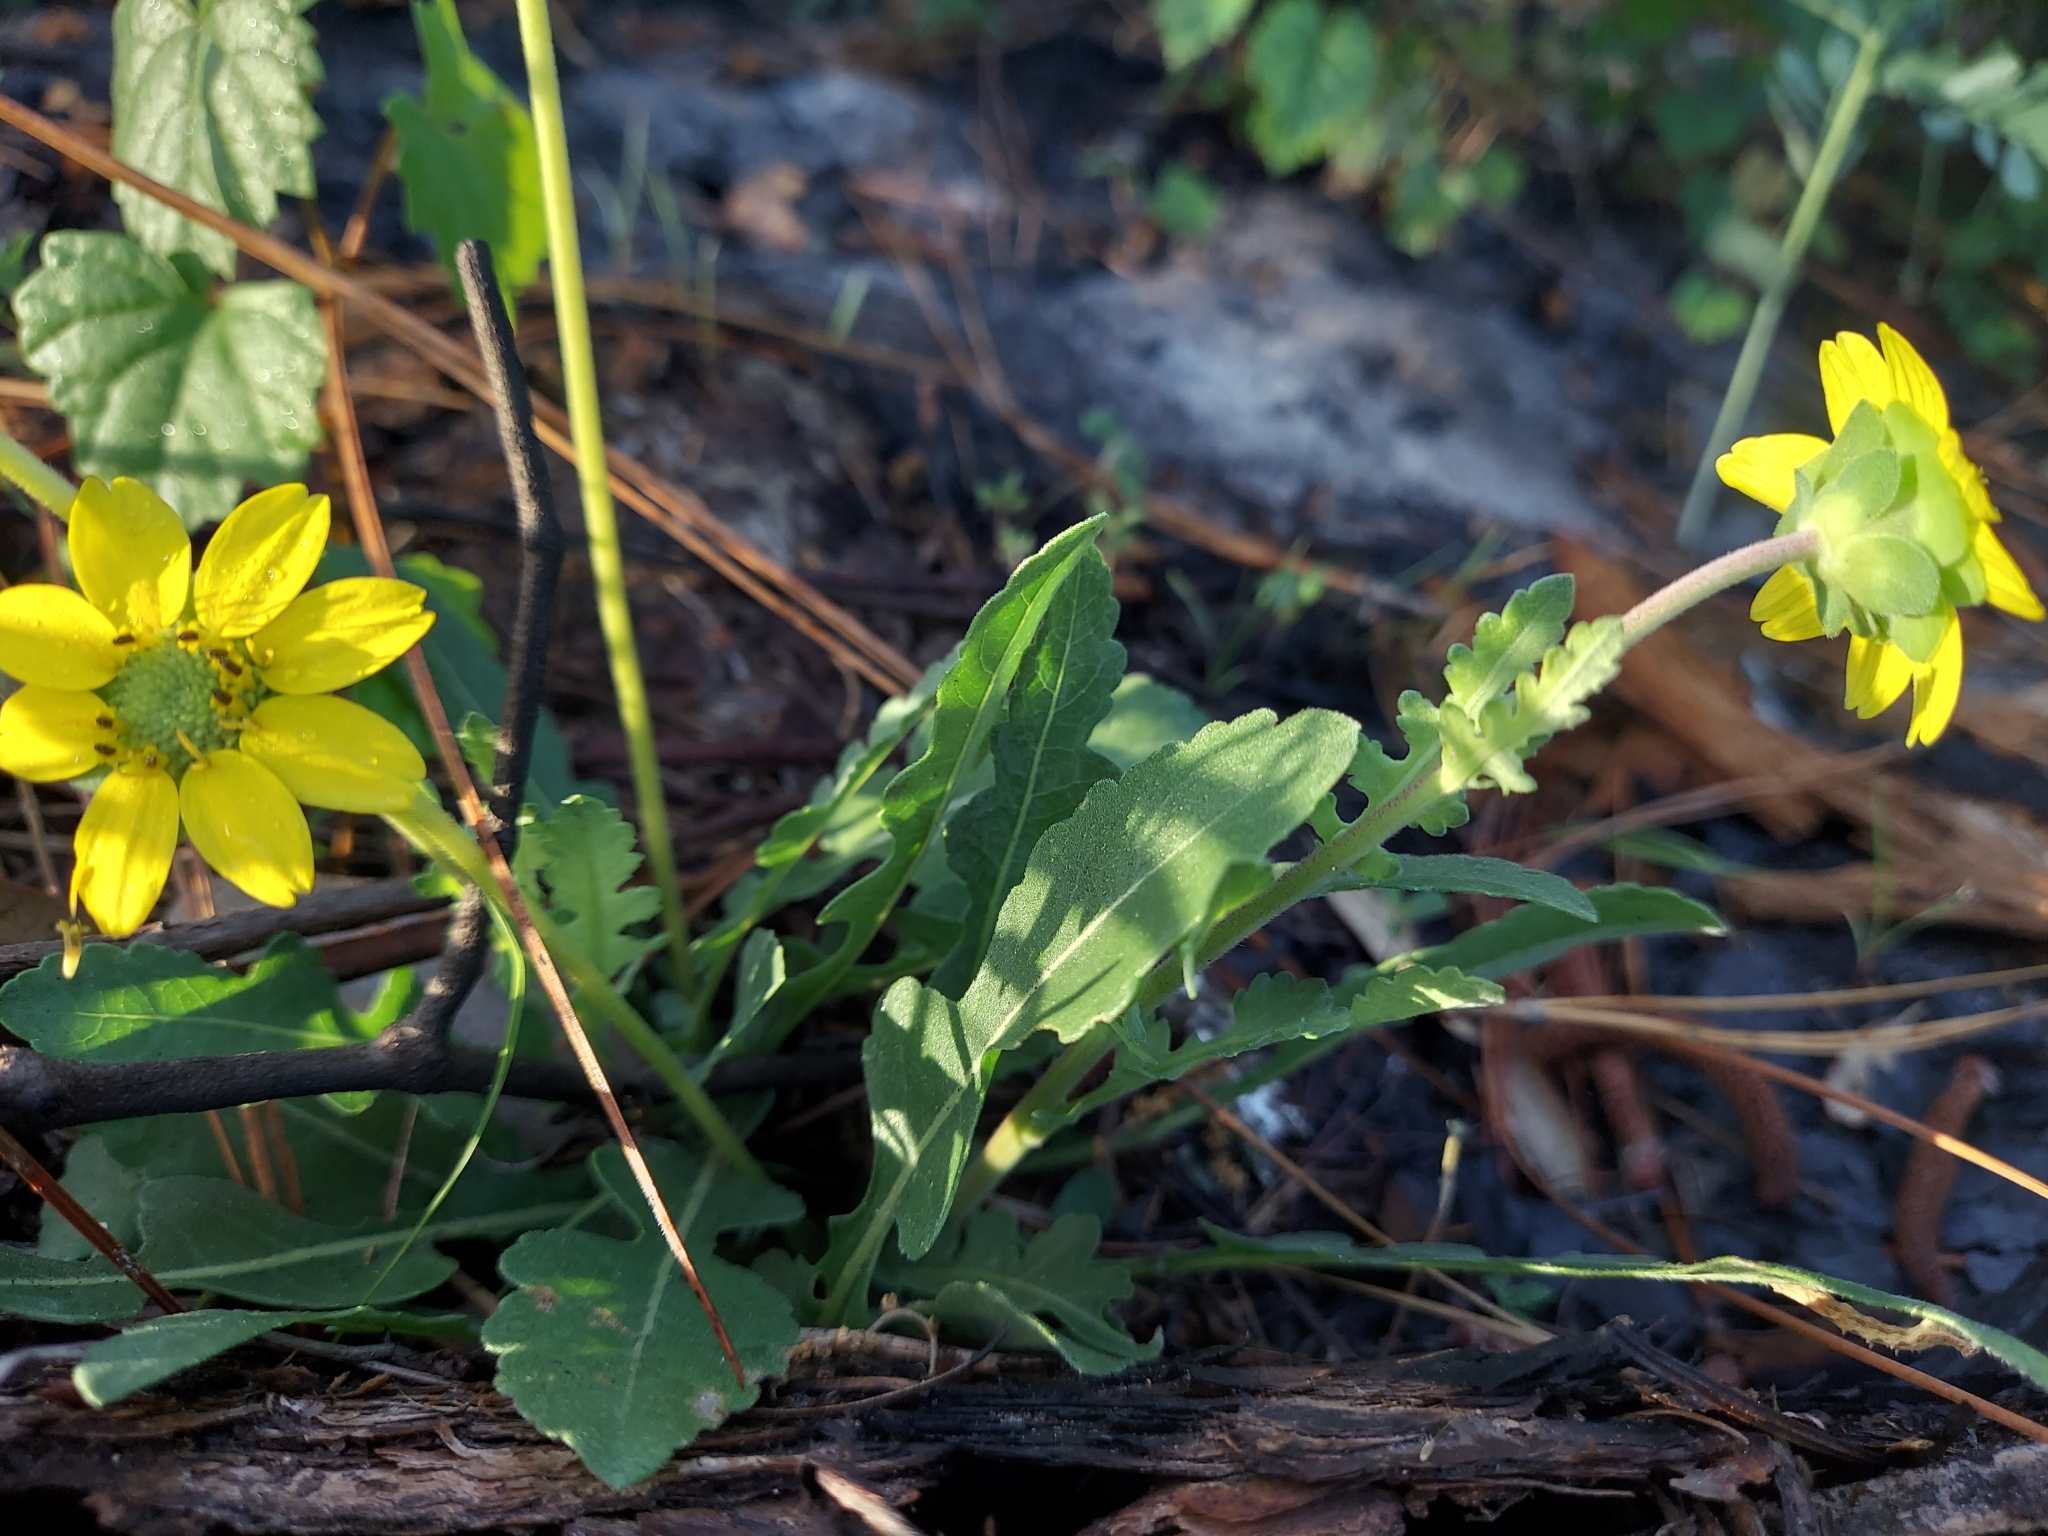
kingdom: Plantae
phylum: Tracheophyta
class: Magnoliopsida
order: Asterales
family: Asteraceae
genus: Berlandiera
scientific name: Berlandiera subacaulis
